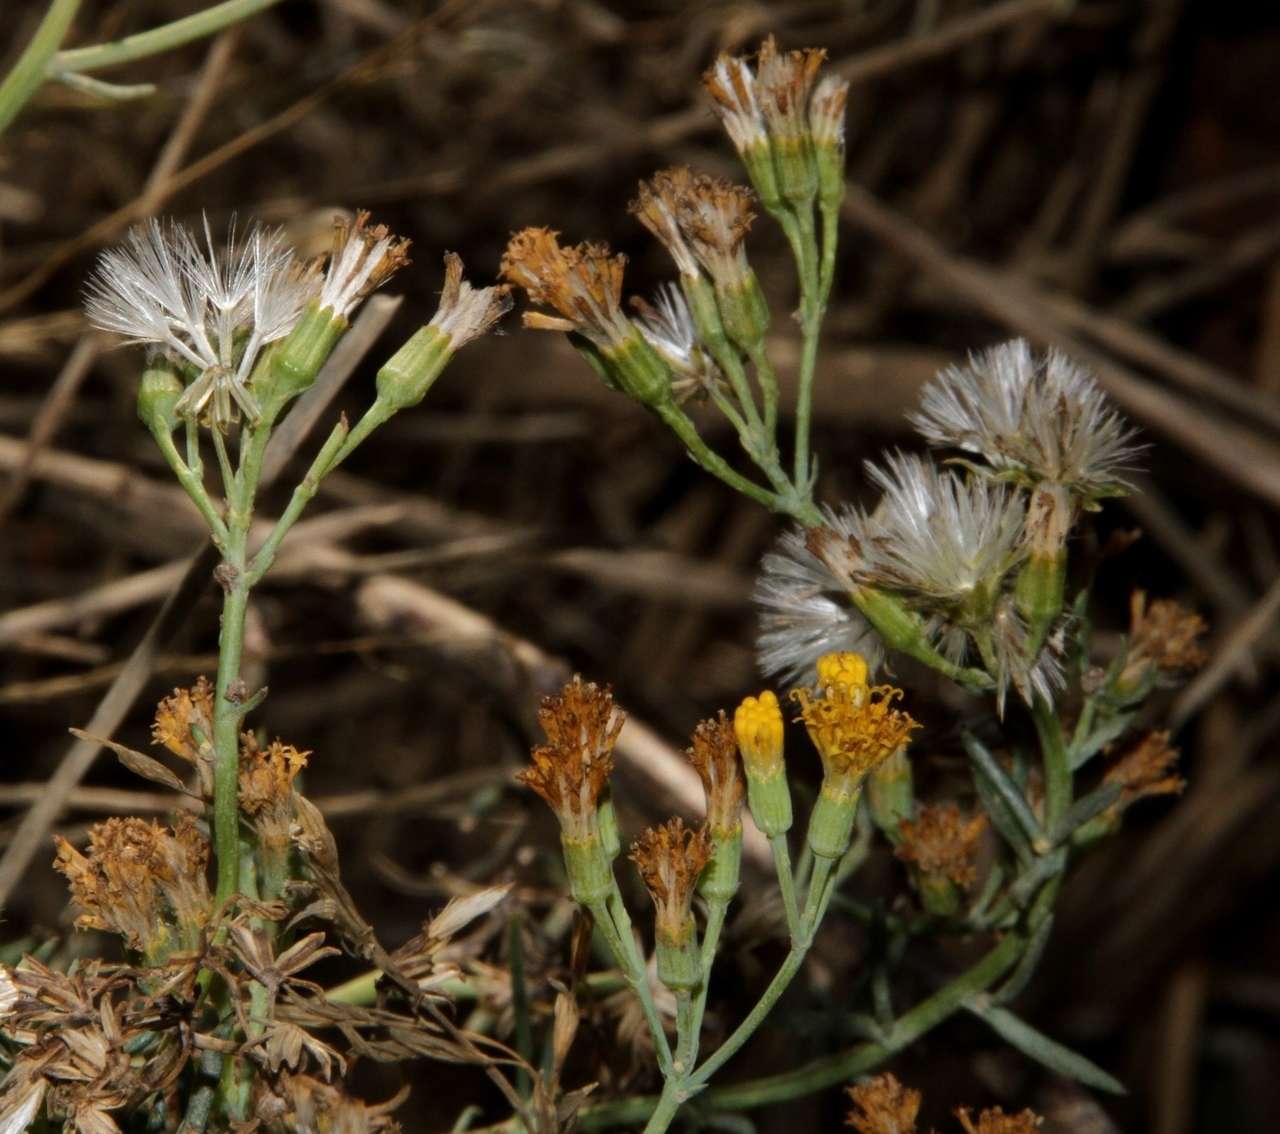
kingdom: Plantae
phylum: Tracheophyta
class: Magnoliopsida
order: Asterales
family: Asteraceae
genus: Senecio
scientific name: Senecio cunninghamii
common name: Bushy groundsel
